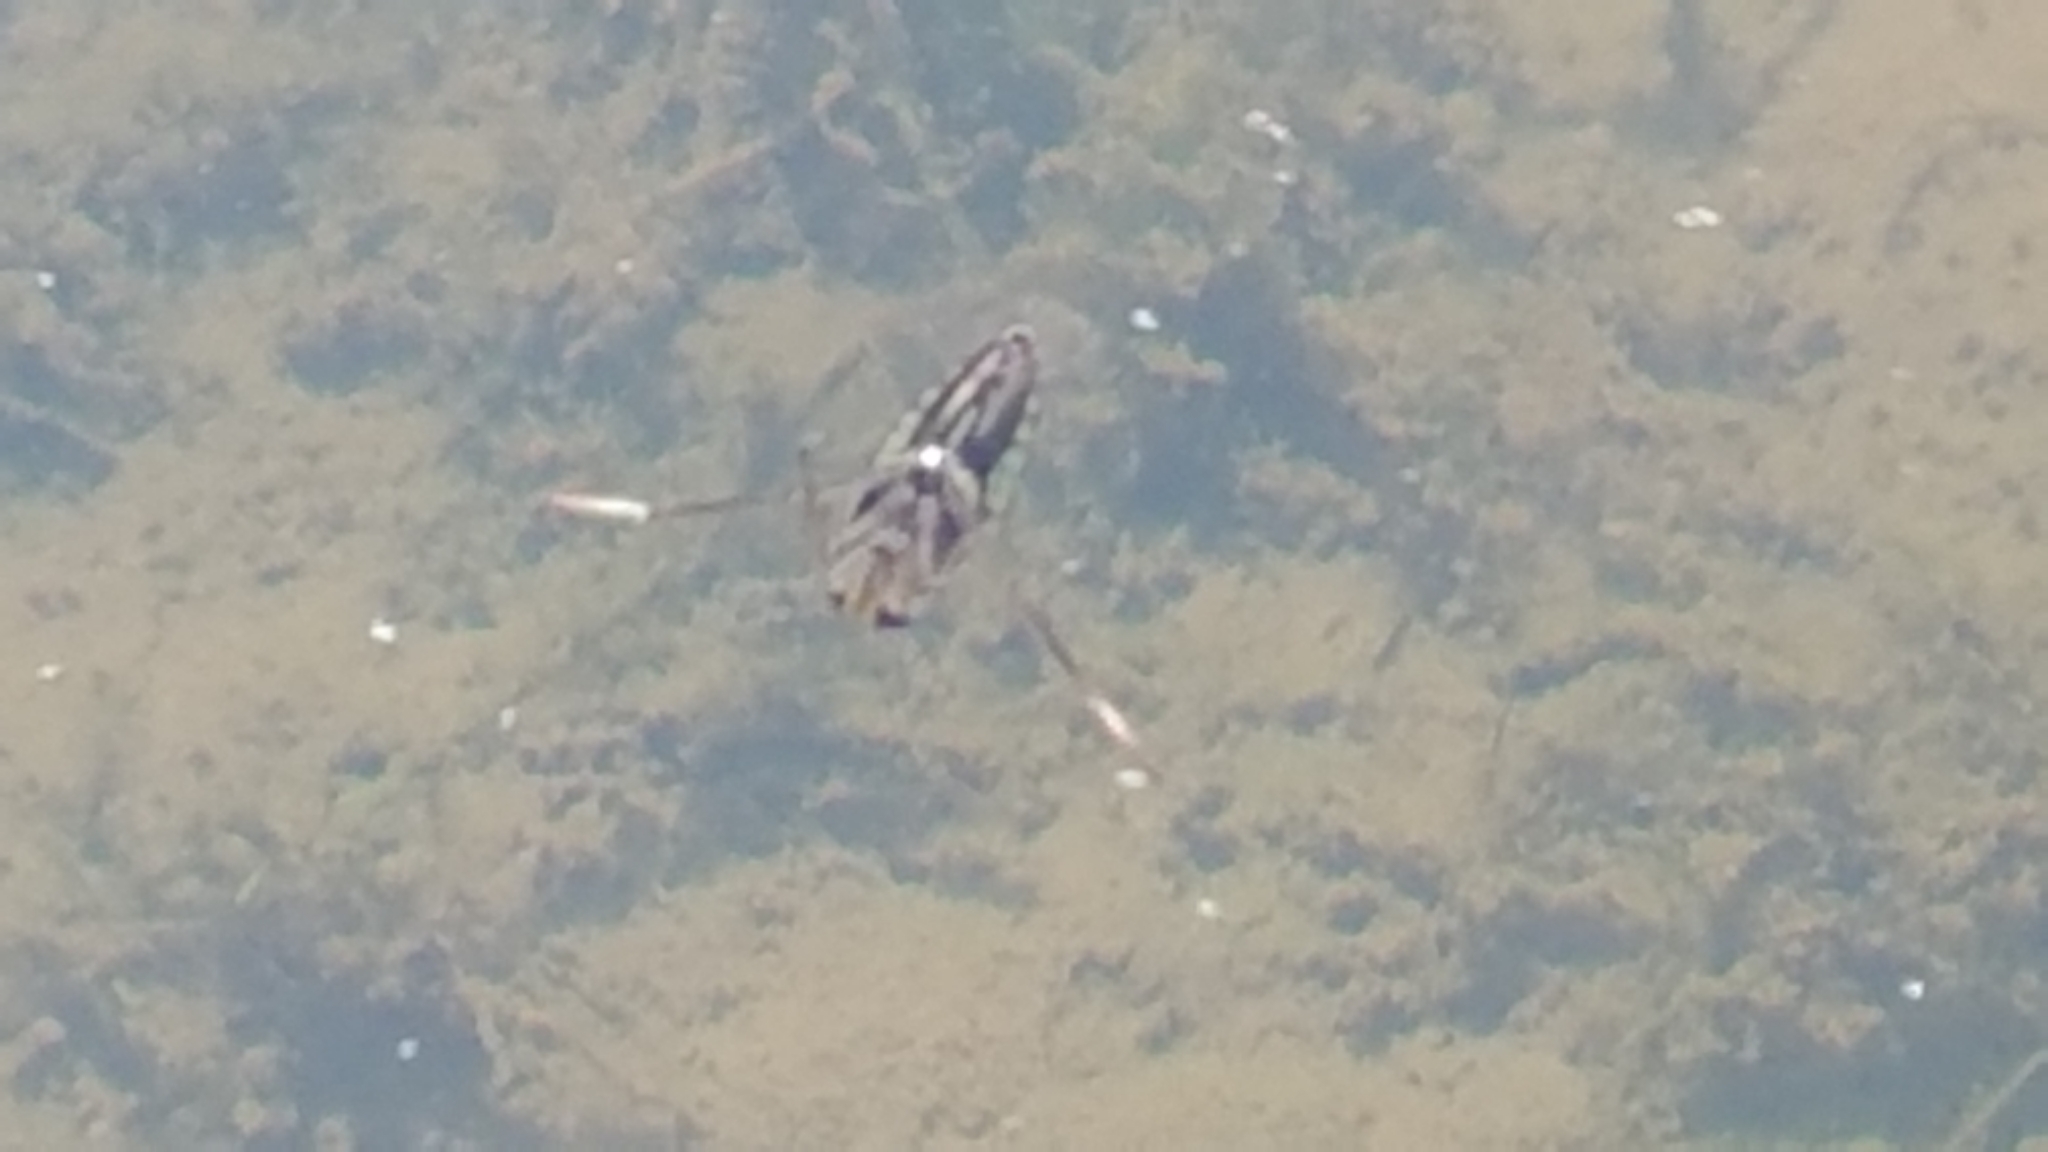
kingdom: Animalia
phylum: Arthropoda
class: Insecta
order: Hemiptera
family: Notonectidae
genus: Notonecta
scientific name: Notonecta
